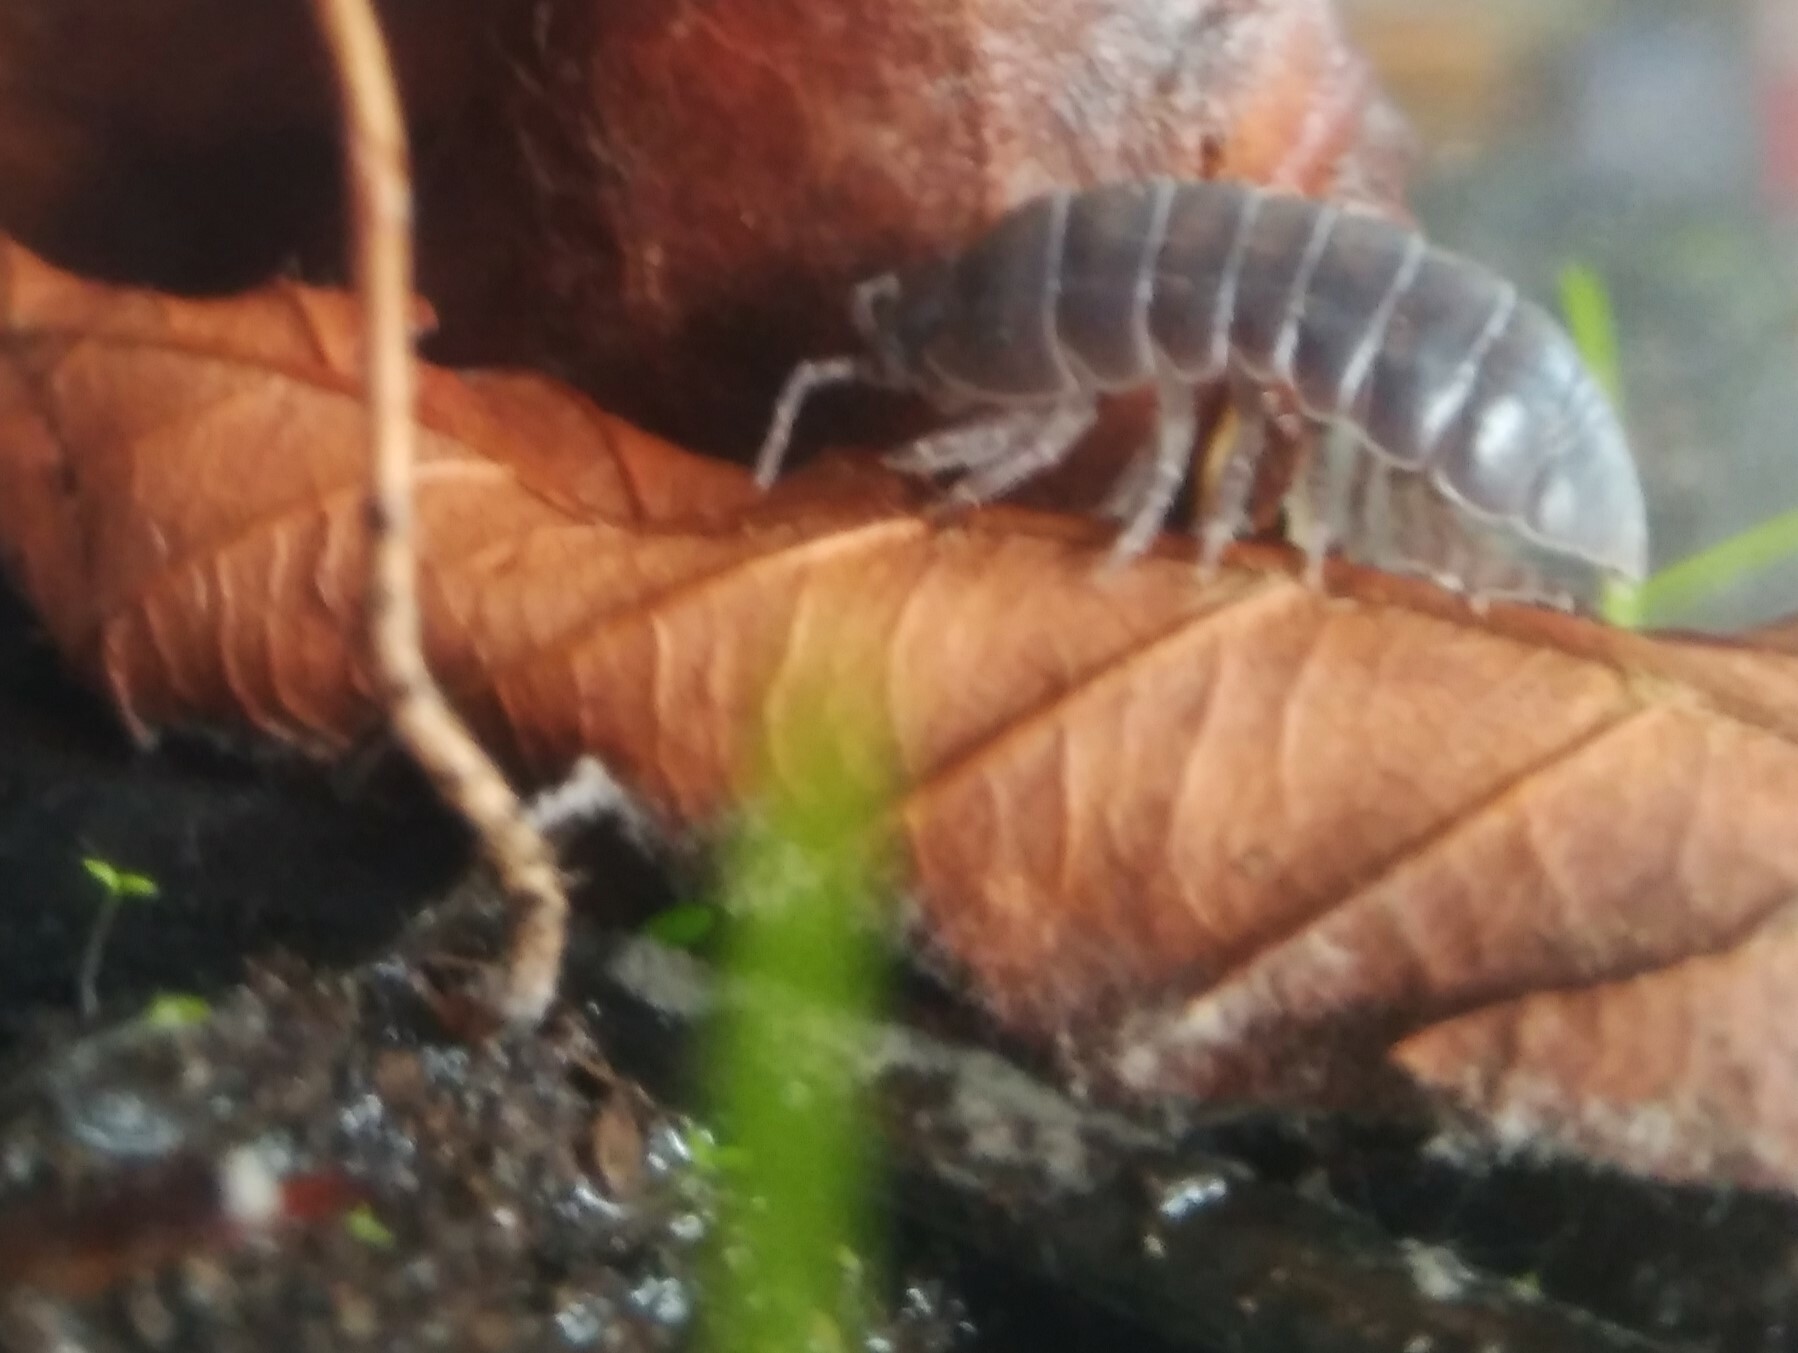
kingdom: Animalia
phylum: Arthropoda
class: Malacostraca
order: Isopoda
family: Armadillidiidae
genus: Armadillidium
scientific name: Armadillidium vulgare
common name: Common pill woodlouse
